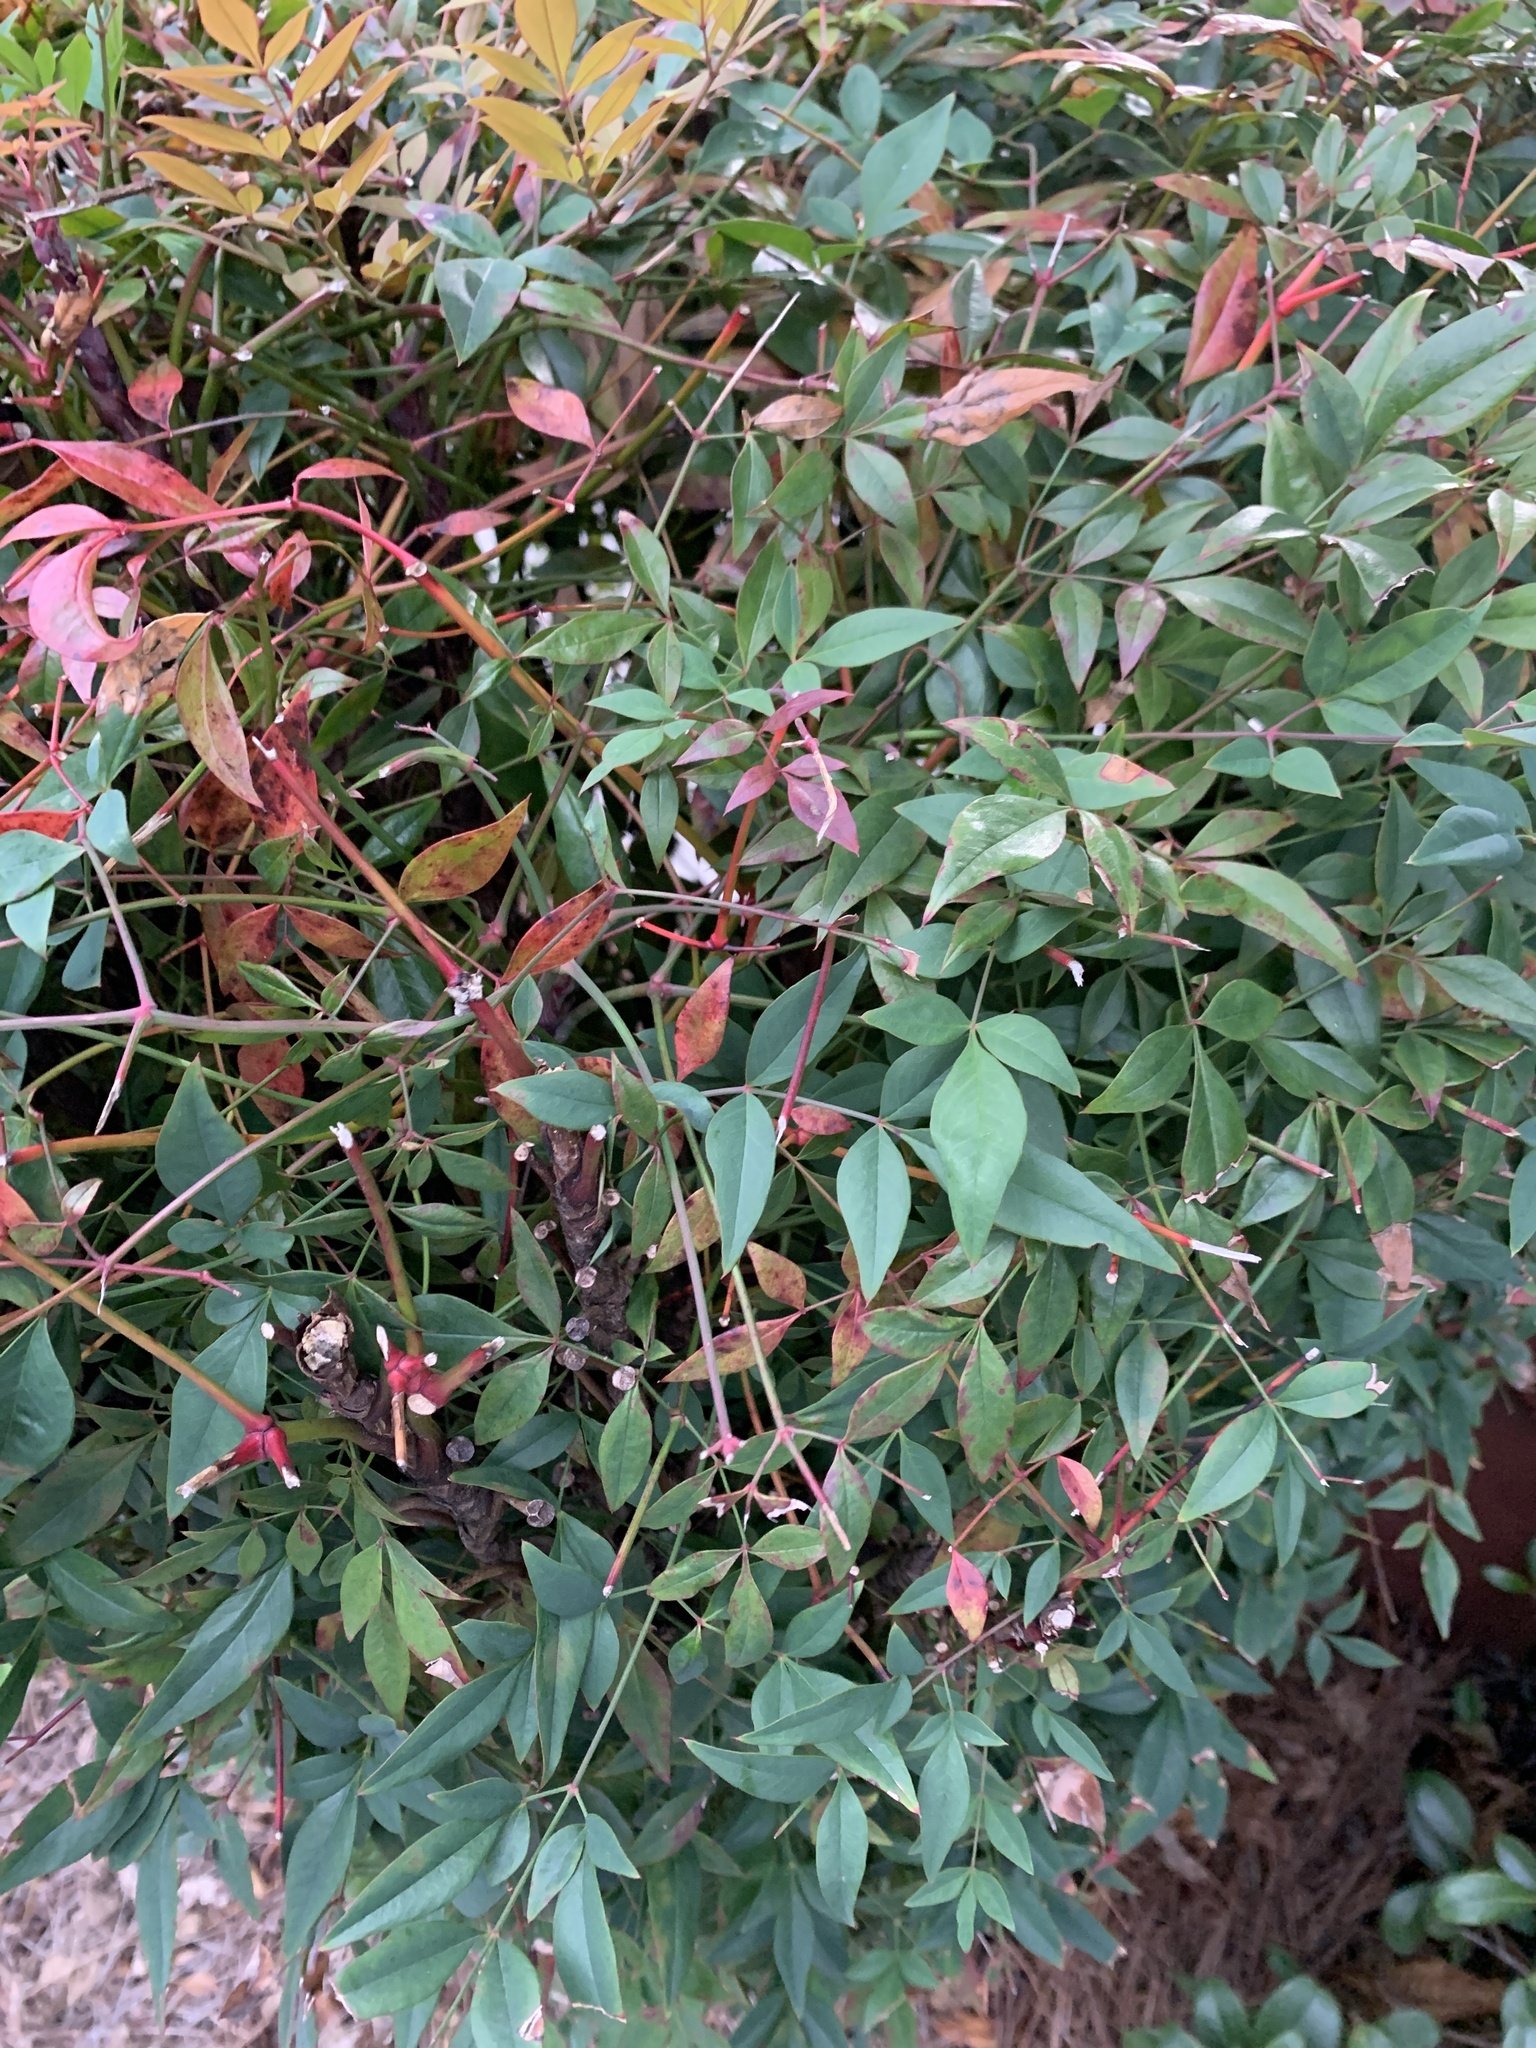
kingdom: Plantae
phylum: Tracheophyta
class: Magnoliopsida
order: Ranunculales
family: Berberidaceae
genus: Nandina
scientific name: Nandina domestica
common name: Sacred bamboo
